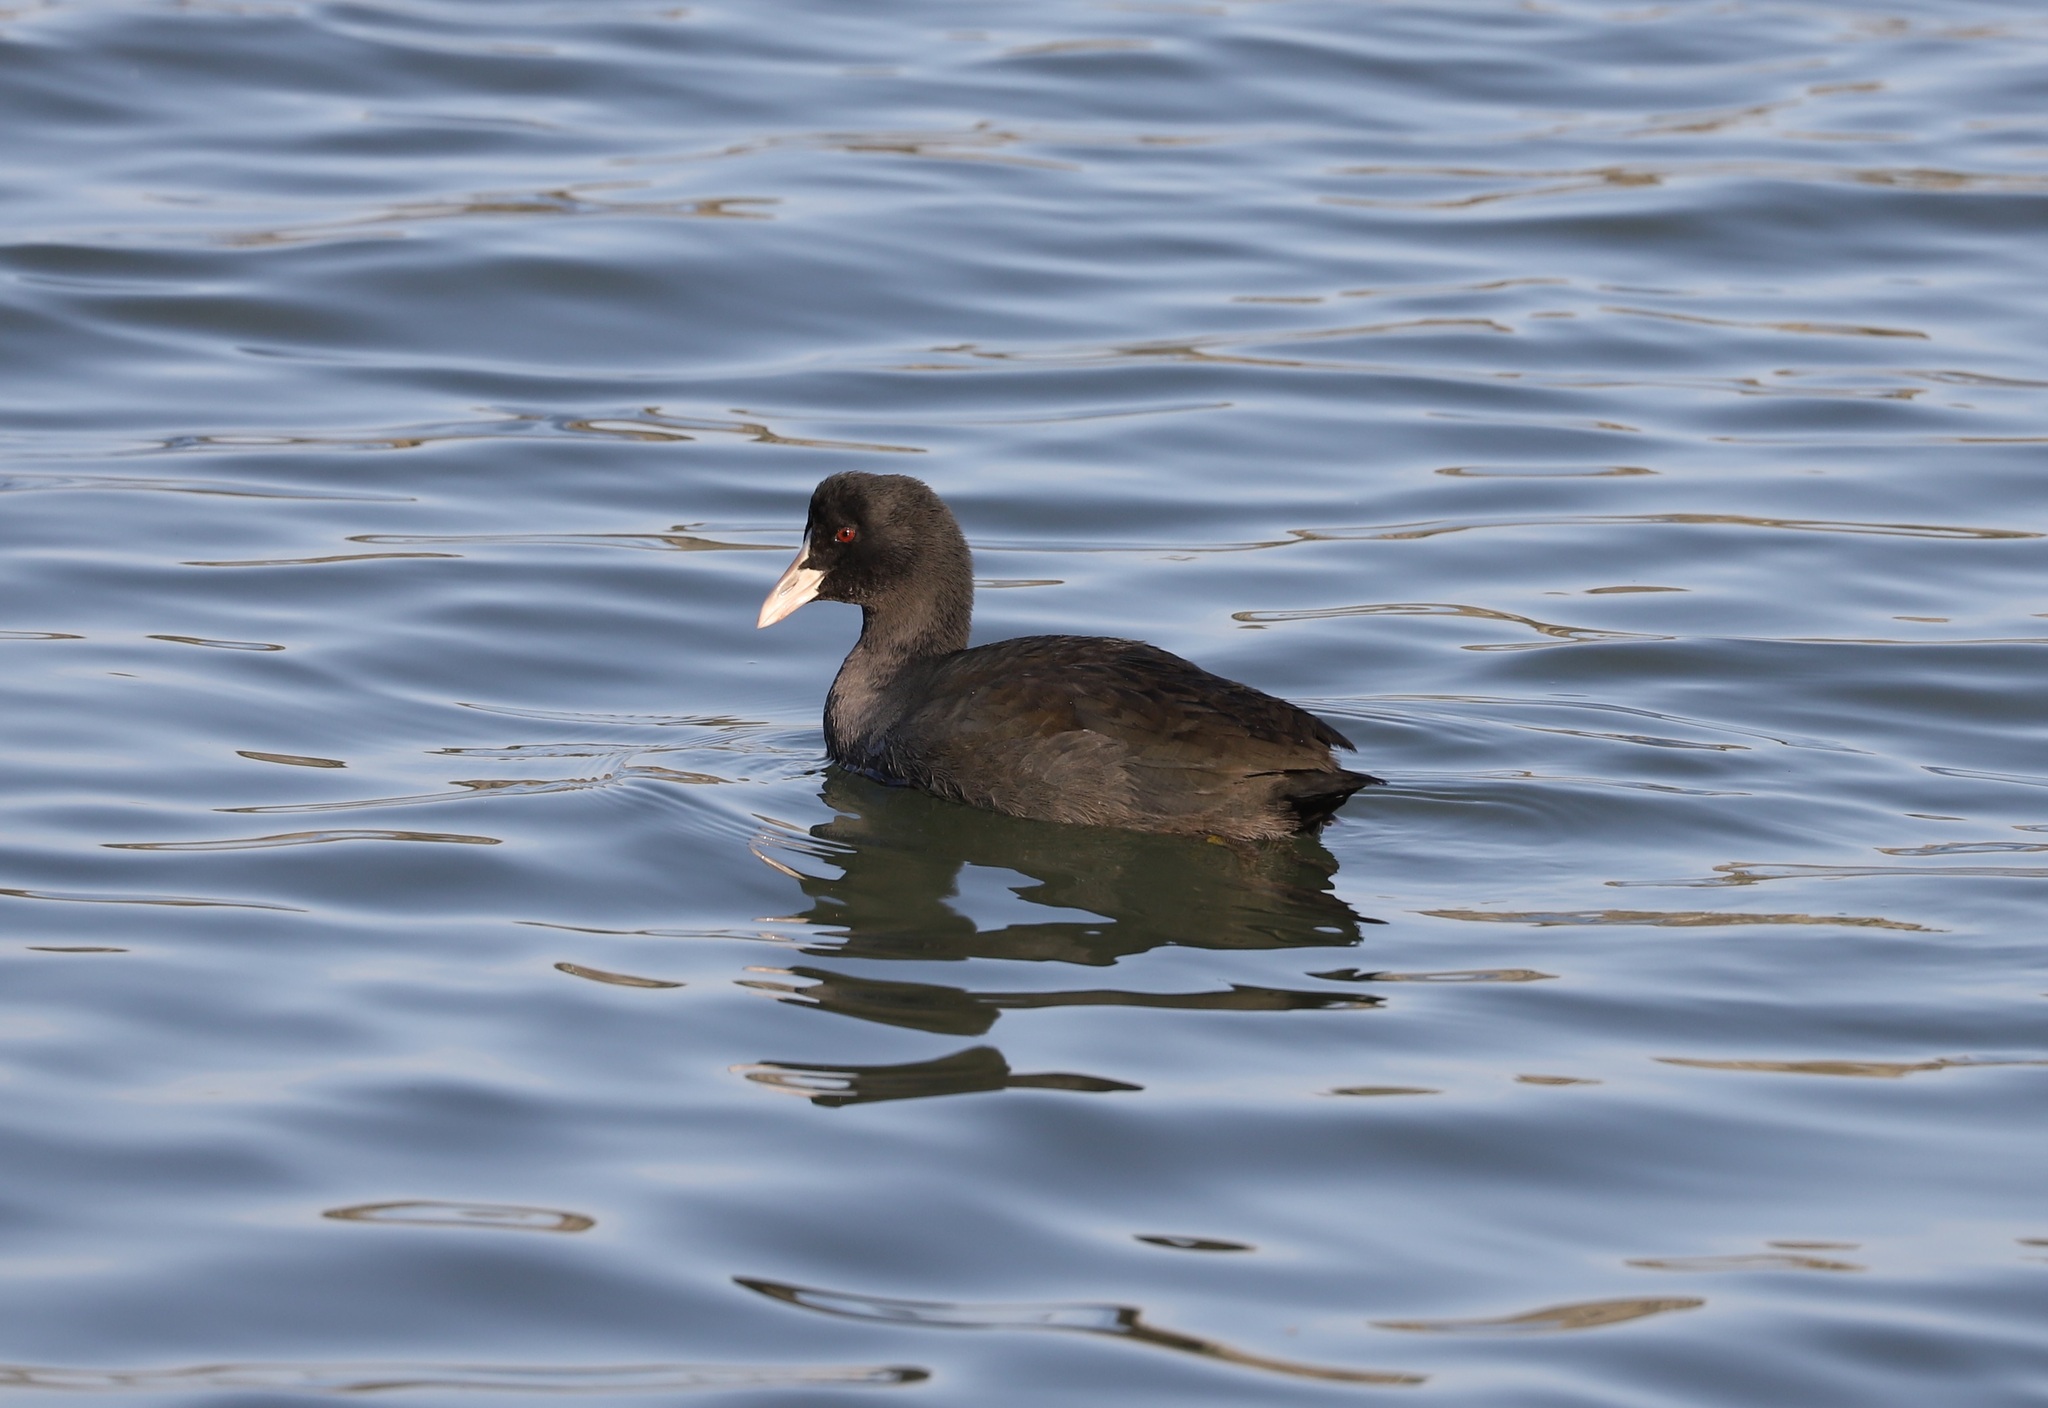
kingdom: Animalia
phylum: Chordata
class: Aves
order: Gruiformes
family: Rallidae
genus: Fulica
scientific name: Fulica atra
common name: Eurasian coot
